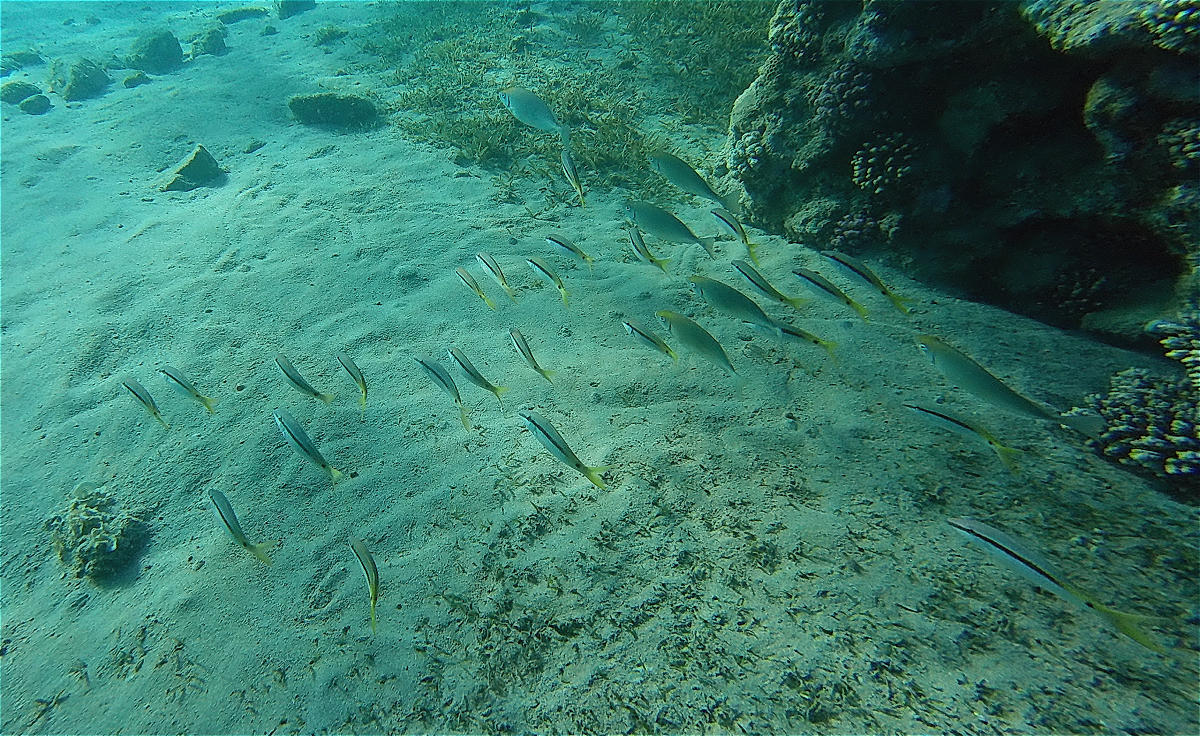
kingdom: Animalia
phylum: Chordata
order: Perciformes
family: Mullidae
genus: Parupeneus
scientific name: Parupeneus forsskali
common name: Red sea goatfish
